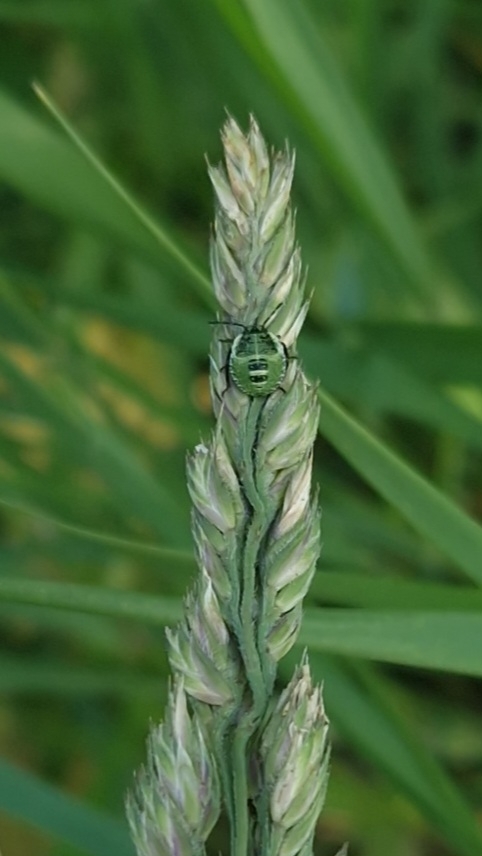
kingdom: Animalia
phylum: Arthropoda
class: Insecta
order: Hemiptera
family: Pentatomidae
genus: Palomena
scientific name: Palomena prasina
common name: Green shieldbug
